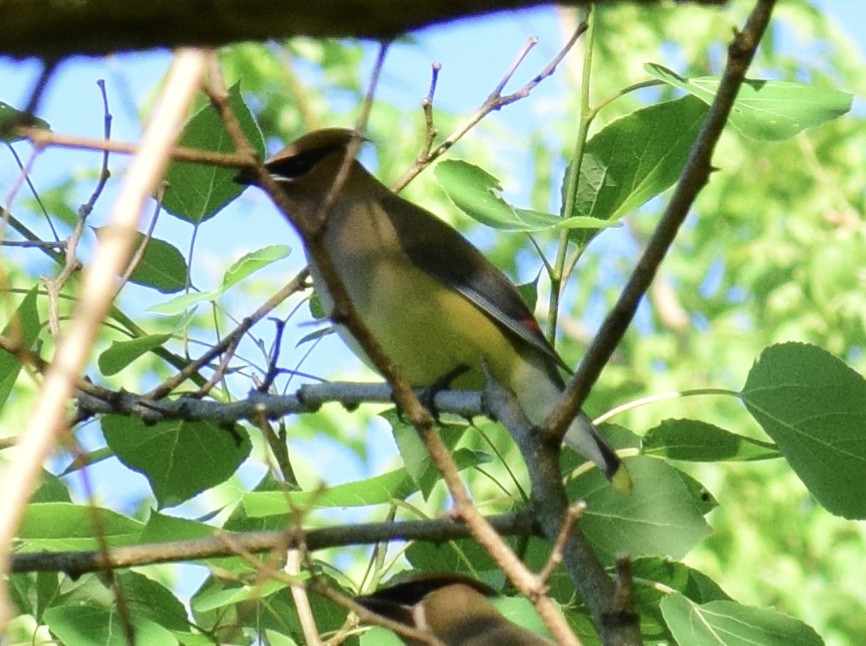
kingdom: Animalia
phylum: Chordata
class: Aves
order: Passeriformes
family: Bombycillidae
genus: Bombycilla
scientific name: Bombycilla cedrorum
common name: Cedar waxwing
